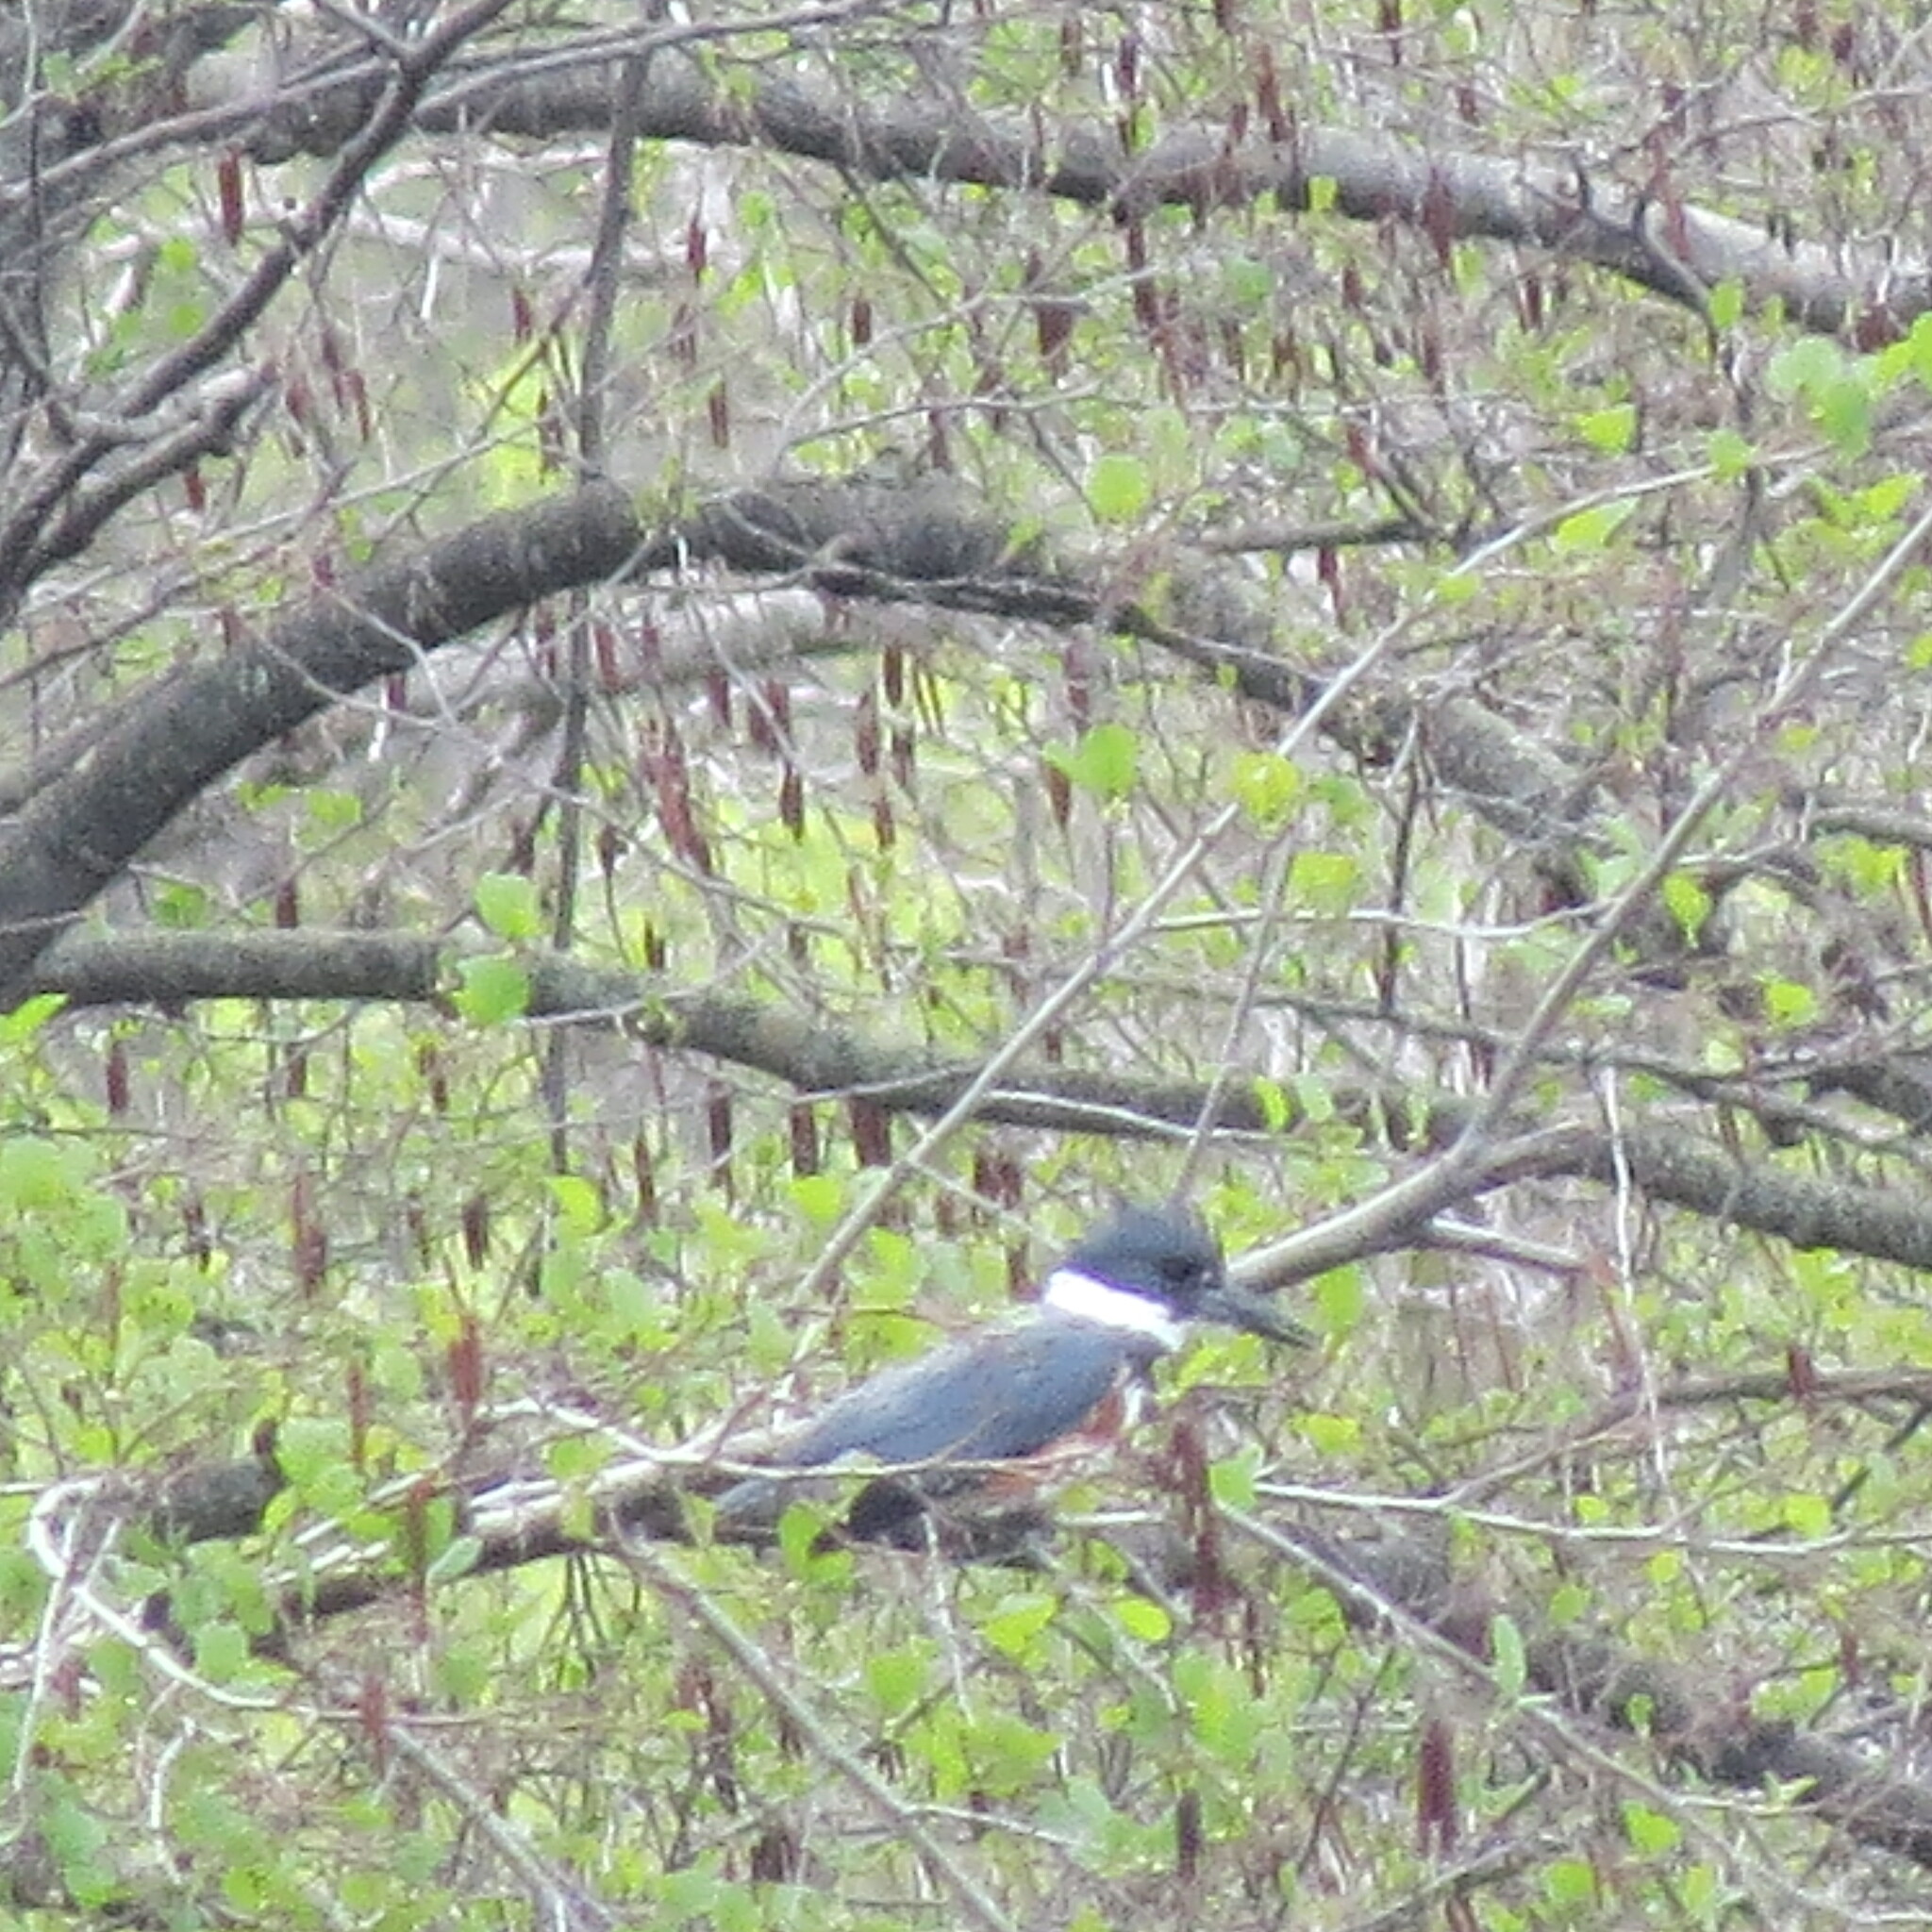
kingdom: Animalia
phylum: Chordata
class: Aves
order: Coraciiformes
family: Alcedinidae
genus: Megaceryle
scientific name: Megaceryle alcyon
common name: Belted kingfisher
